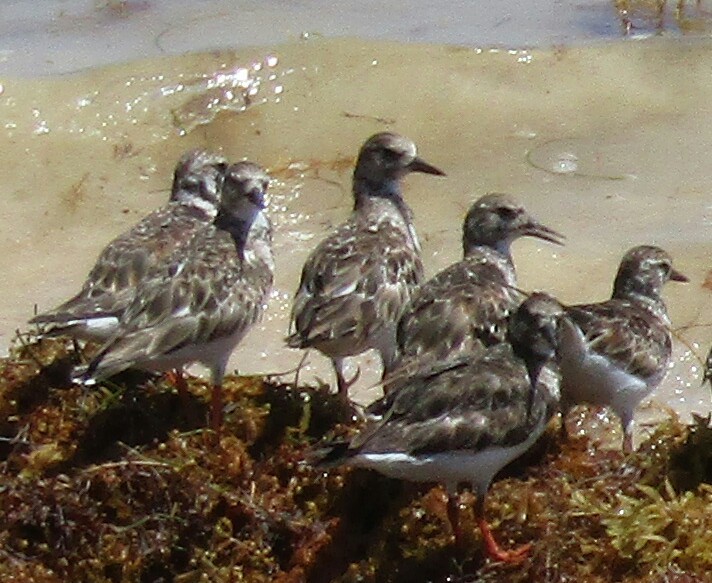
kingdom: Animalia
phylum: Chordata
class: Aves
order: Charadriiformes
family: Scolopacidae
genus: Arenaria
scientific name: Arenaria interpres
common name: Ruddy turnstone
